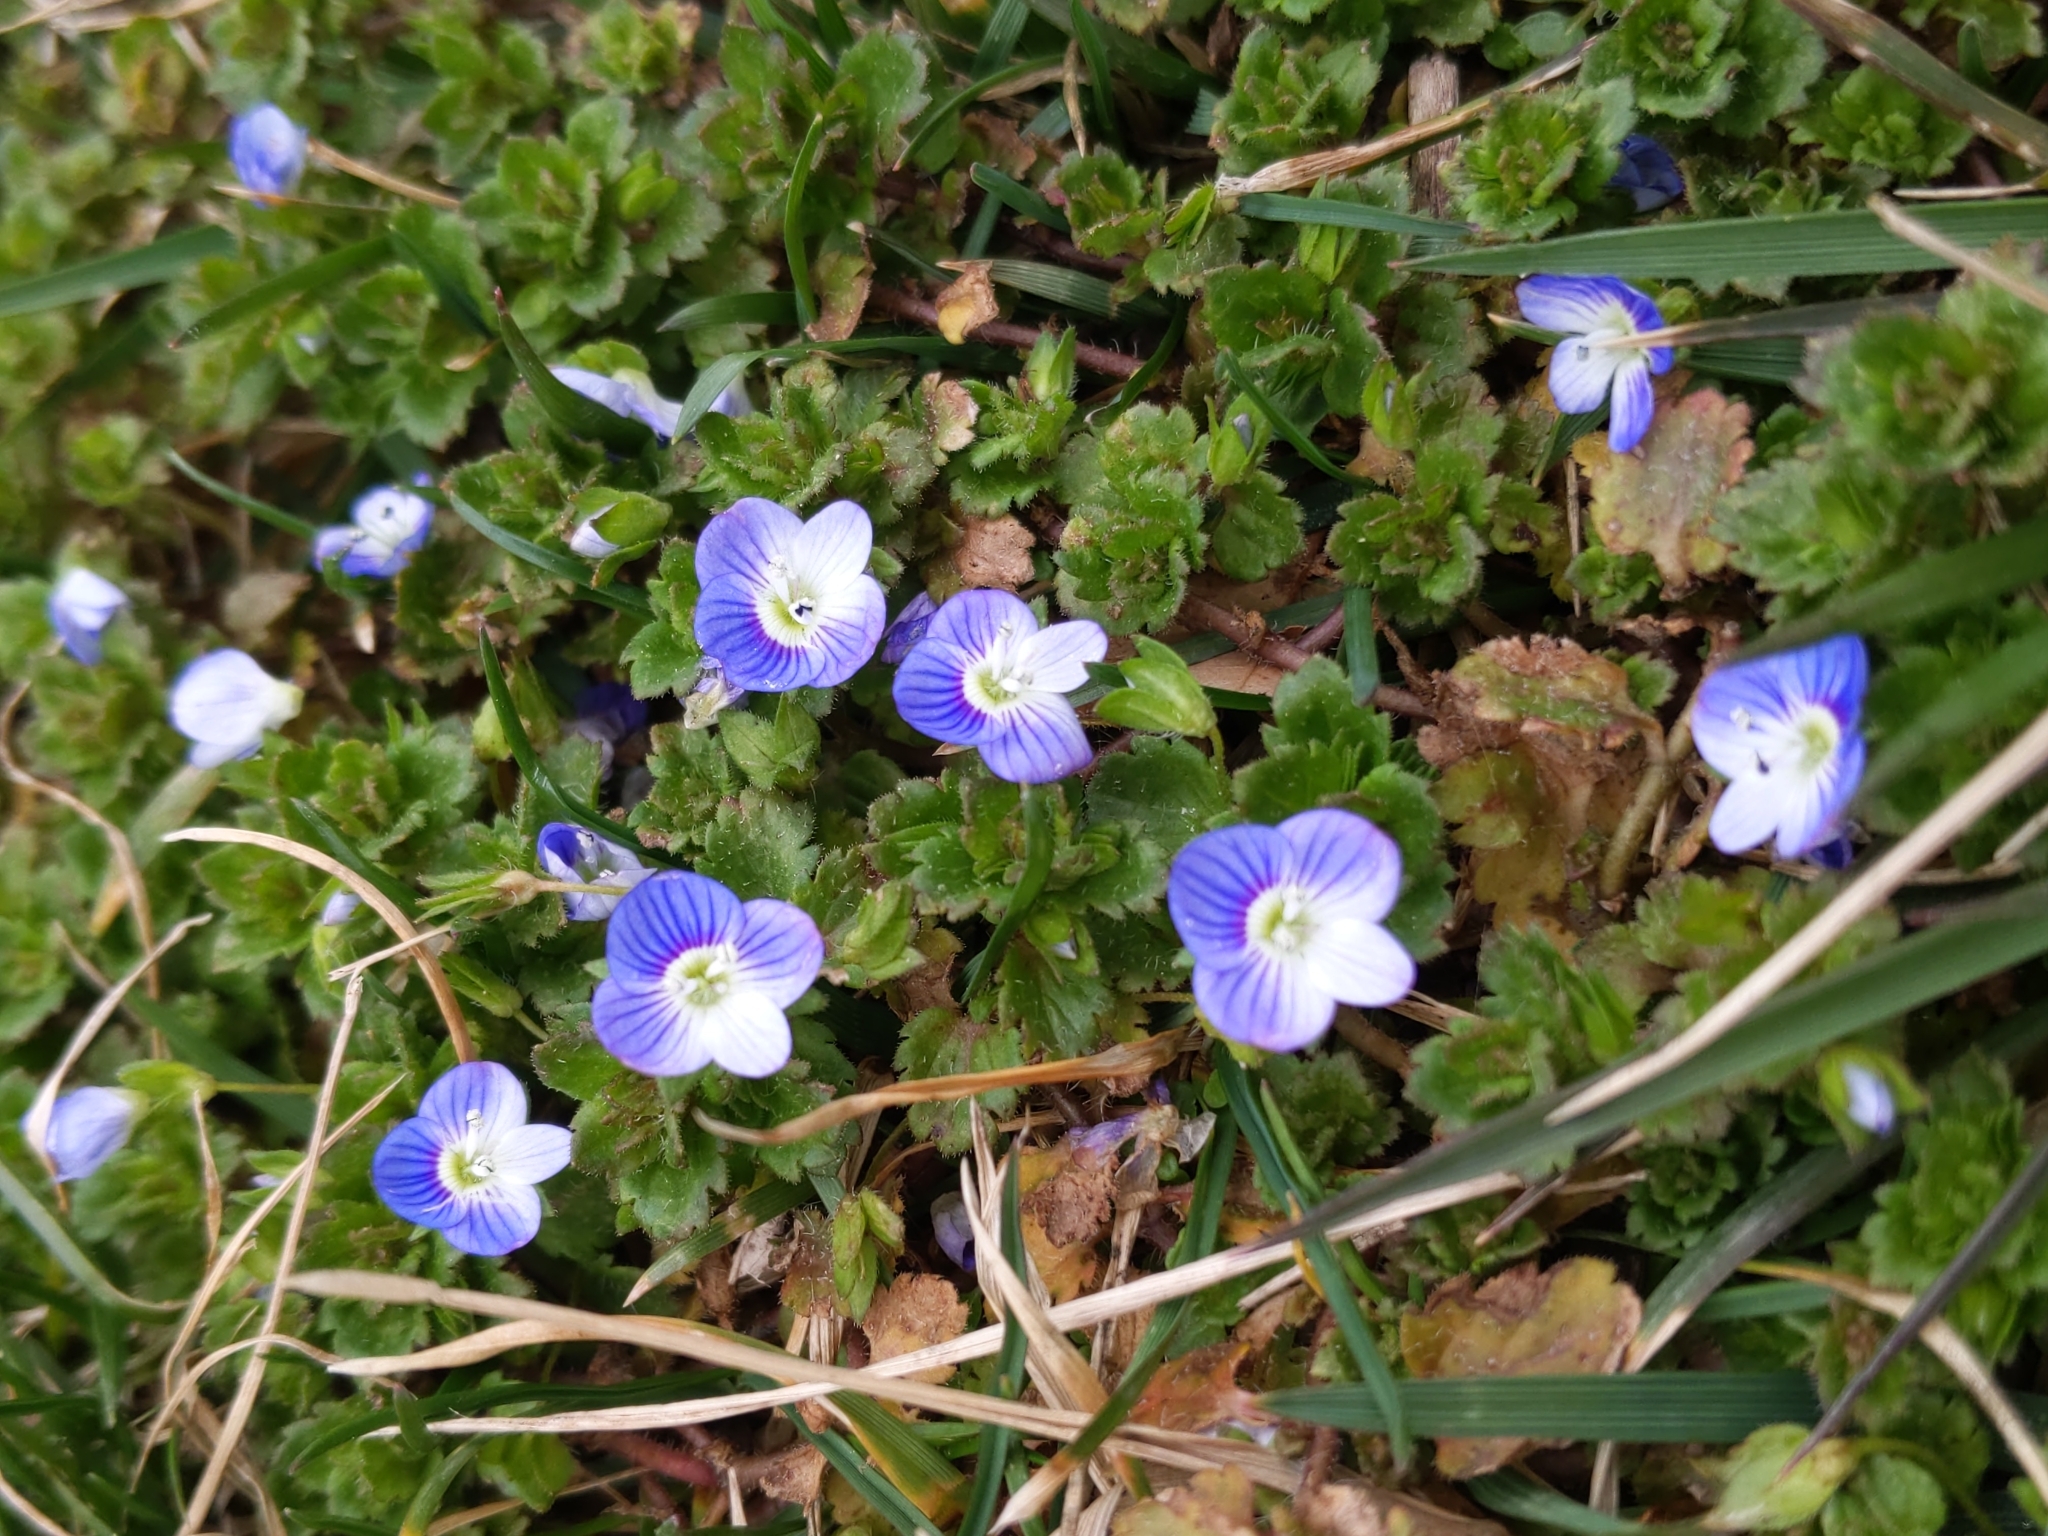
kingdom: Plantae
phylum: Tracheophyta
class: Magnoliopsida
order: Lamiales
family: Plantaginaceae
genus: Veronica
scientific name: Veronica persica
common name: Common field-speedwell
